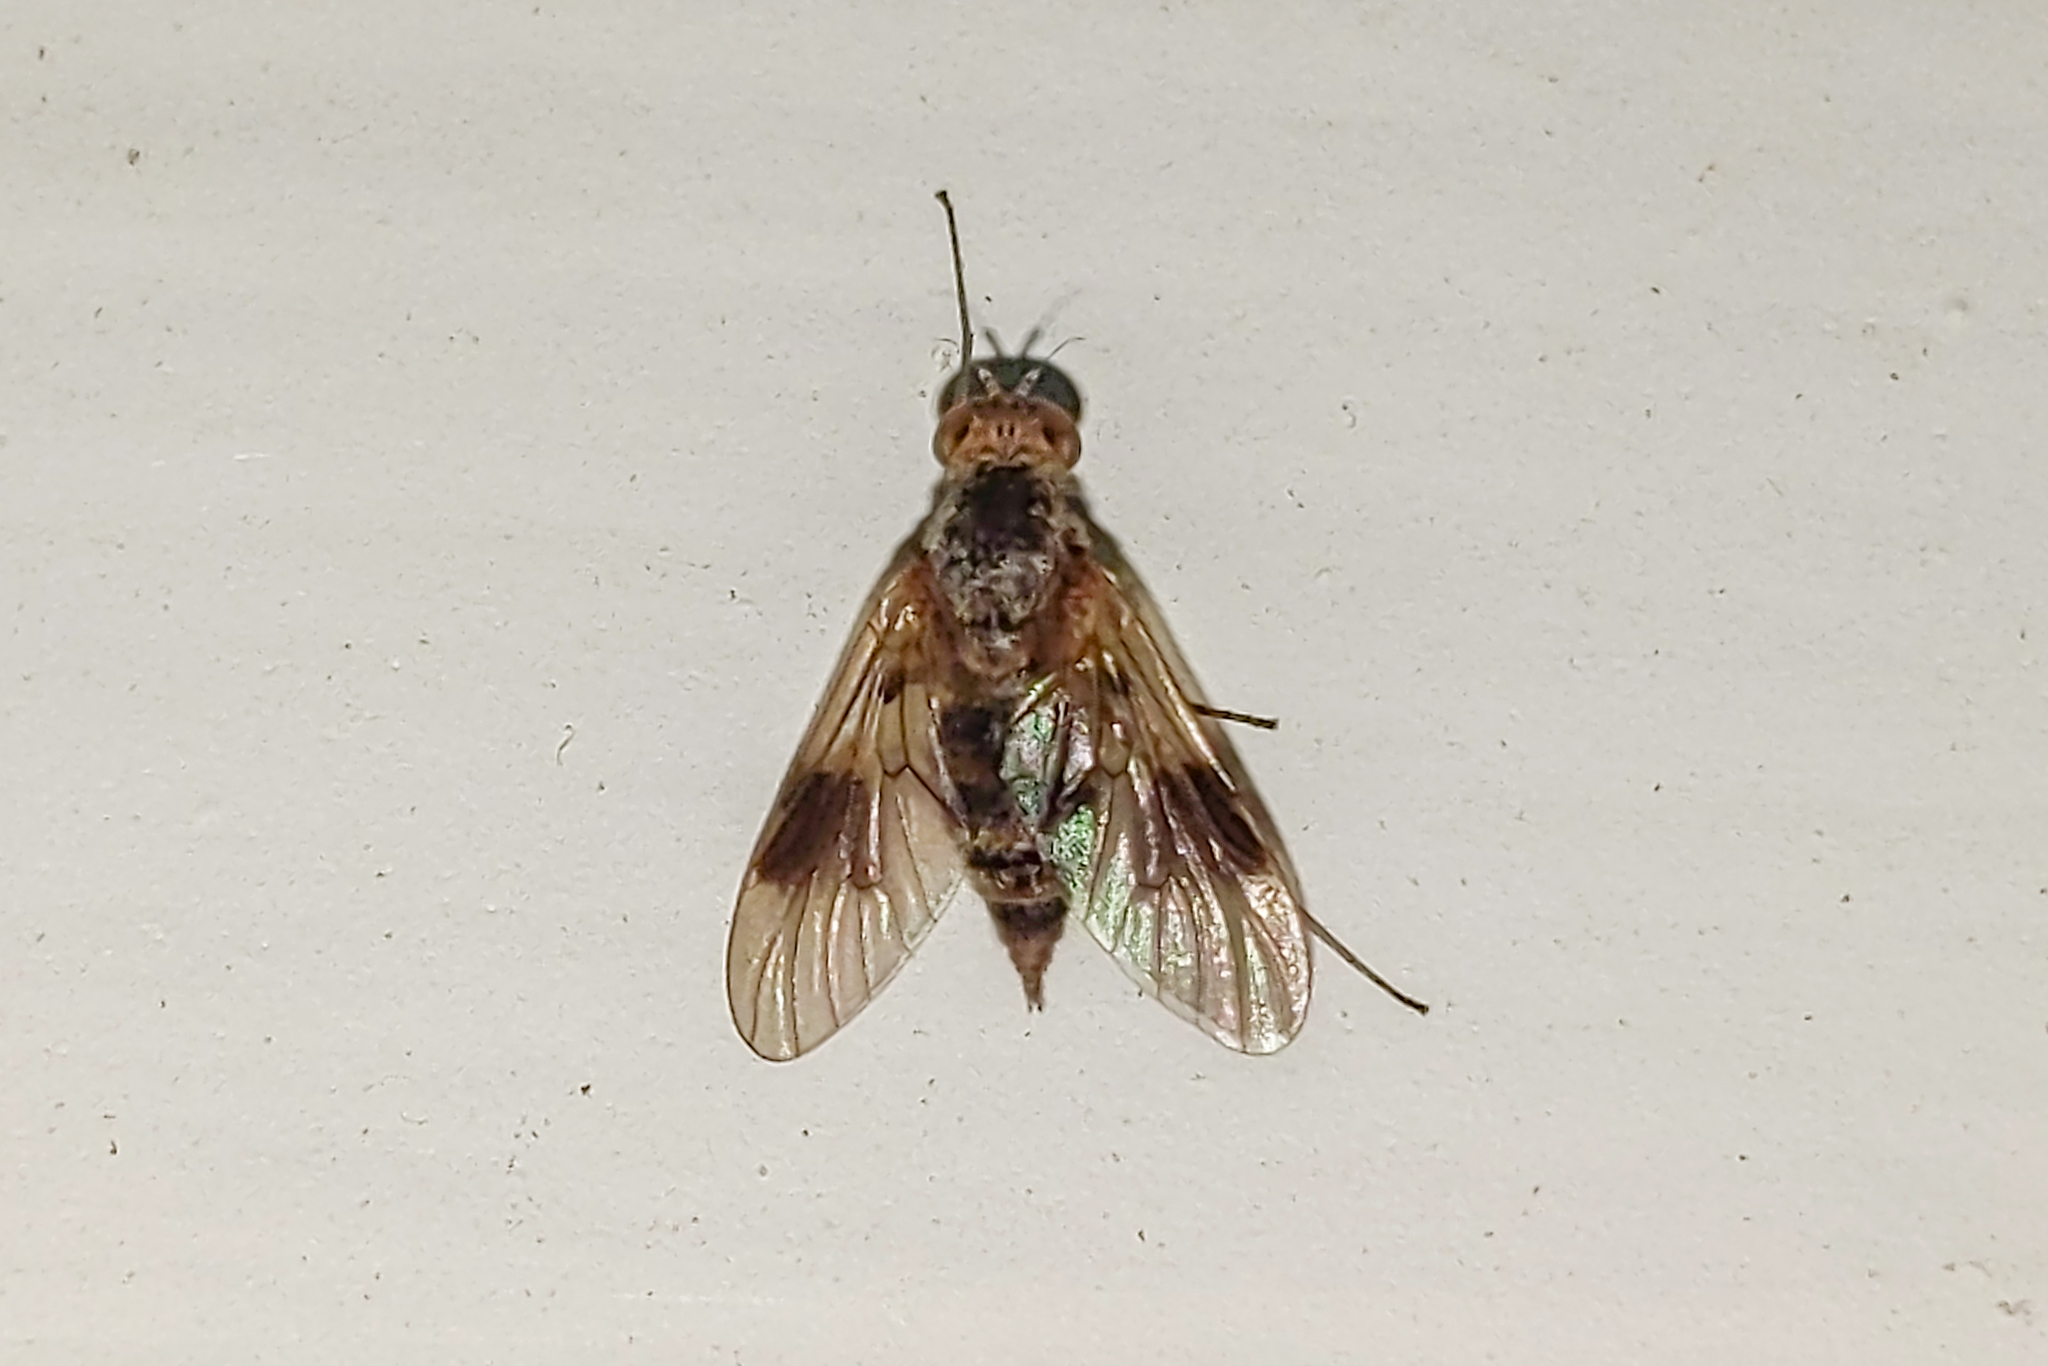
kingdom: Animalia
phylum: Arthropoda
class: Insecta
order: Diptera
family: Rhagionidae
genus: Chrysopilus
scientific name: Chrysopilus quadratus
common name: Quadrate snipe fly
